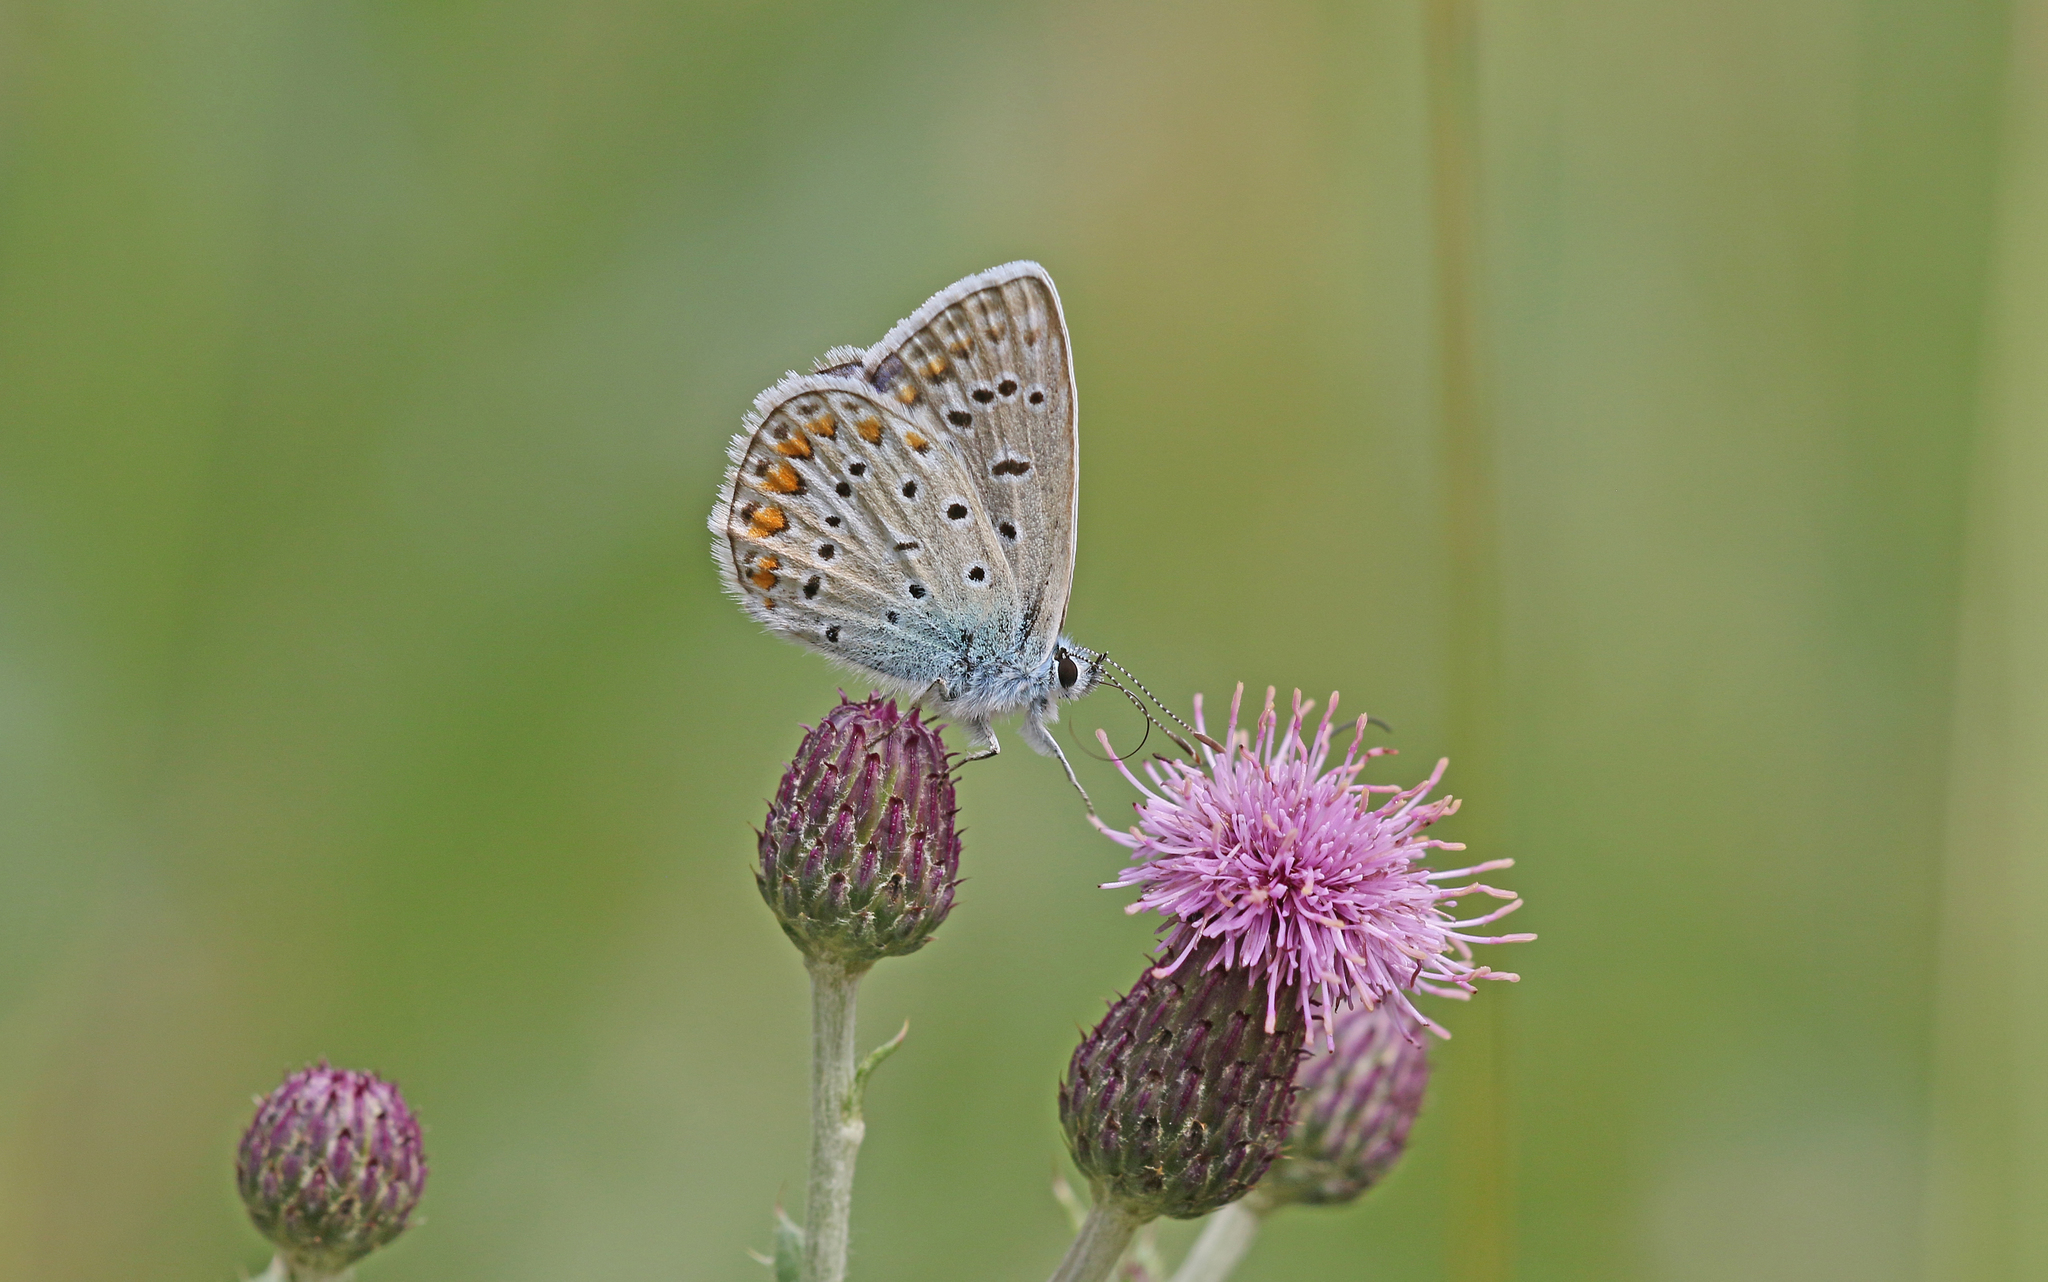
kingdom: Animalia
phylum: Arthropoda
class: Insecta
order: Lepidoptera
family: Lycaenidae
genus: Polyommatus
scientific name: Polyommatus icarus
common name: Common blue
